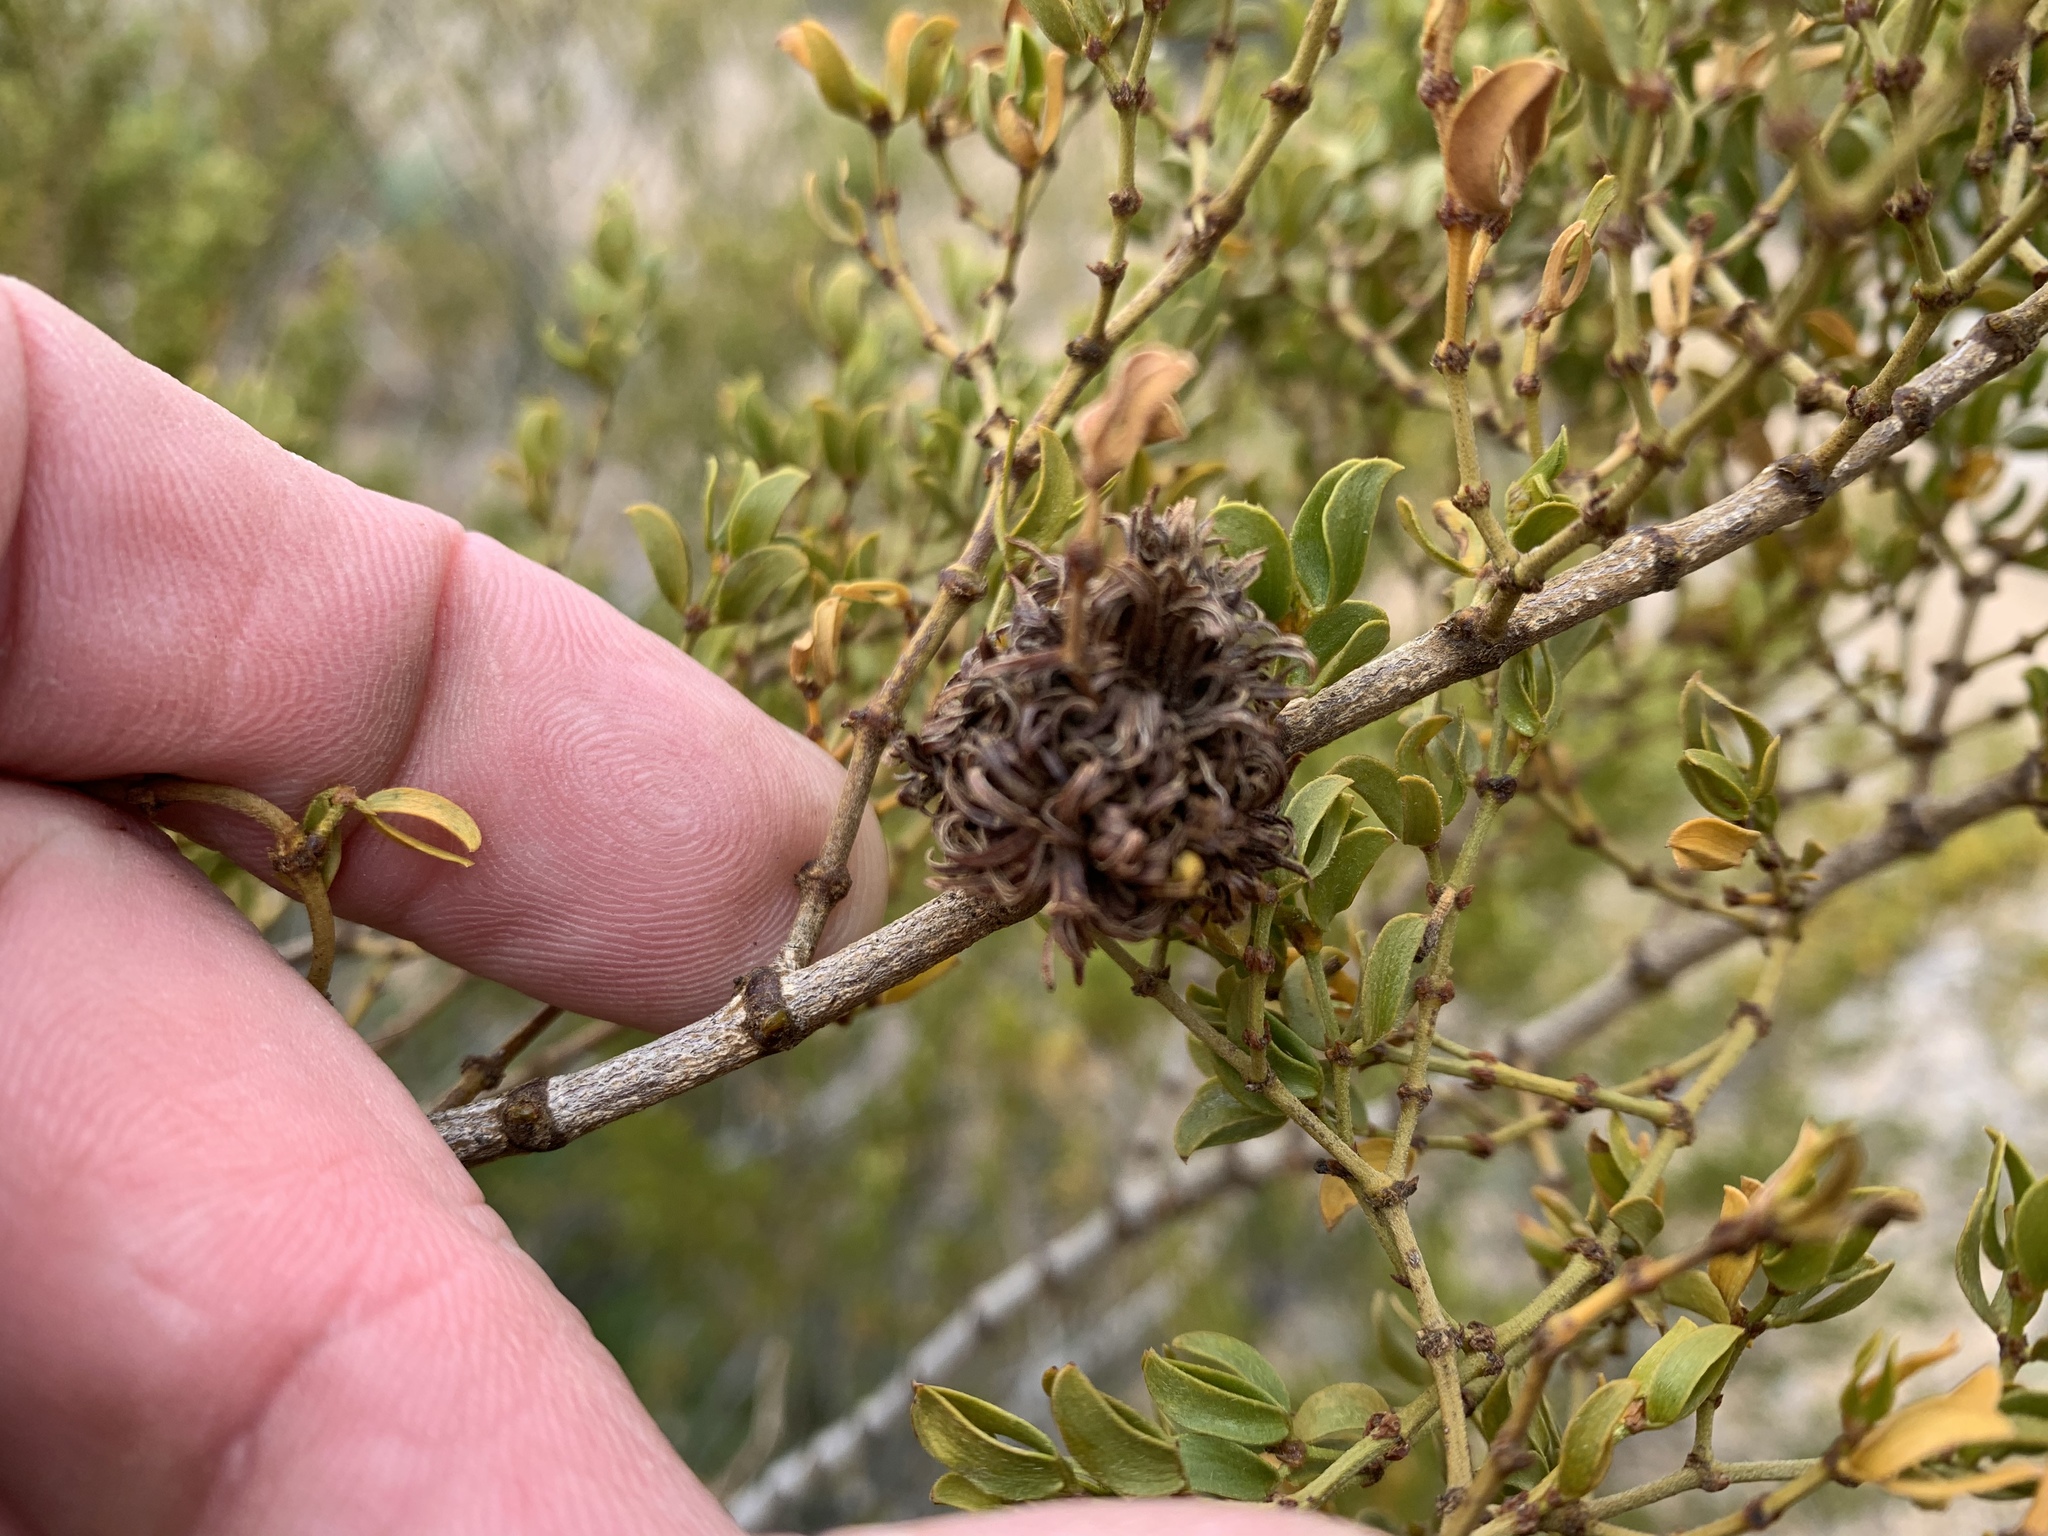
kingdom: Animalia
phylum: Arthropoda
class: Insecta
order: Diptera
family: Cecidomyiidae
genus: Asphondylia
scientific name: Asphondylia auripila
